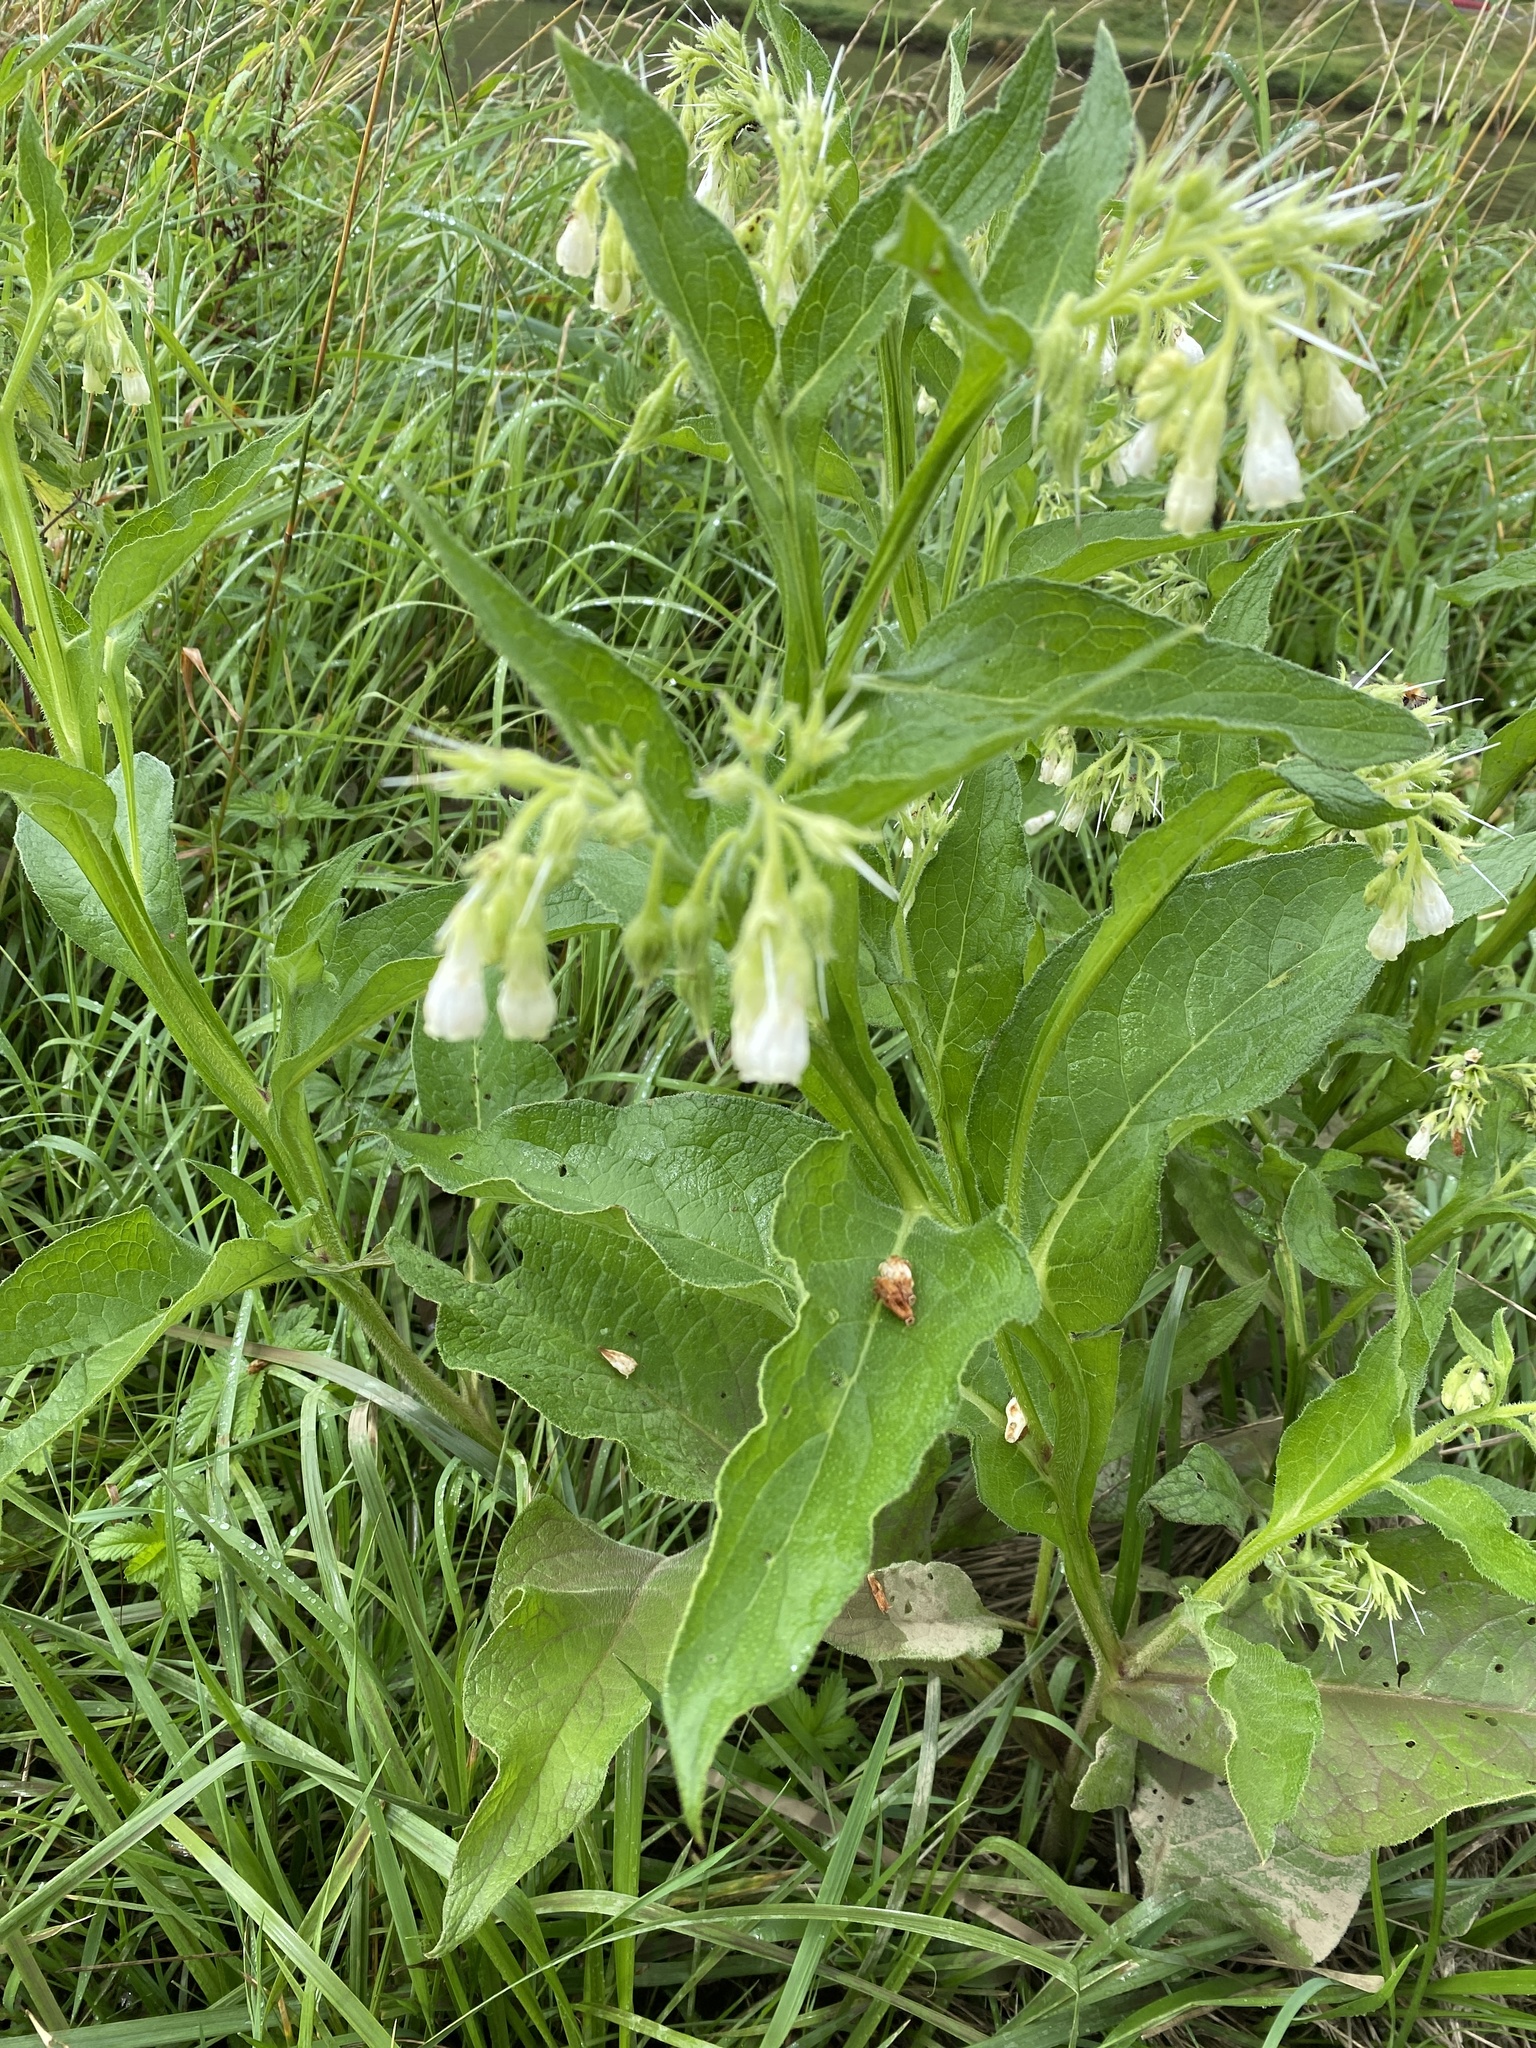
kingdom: Plantae
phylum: Tracheophyta
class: Magnoliopsida
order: Boraginales
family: Boraginaceae
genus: Symphytum
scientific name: Symphytum officinale
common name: Common comfrey
